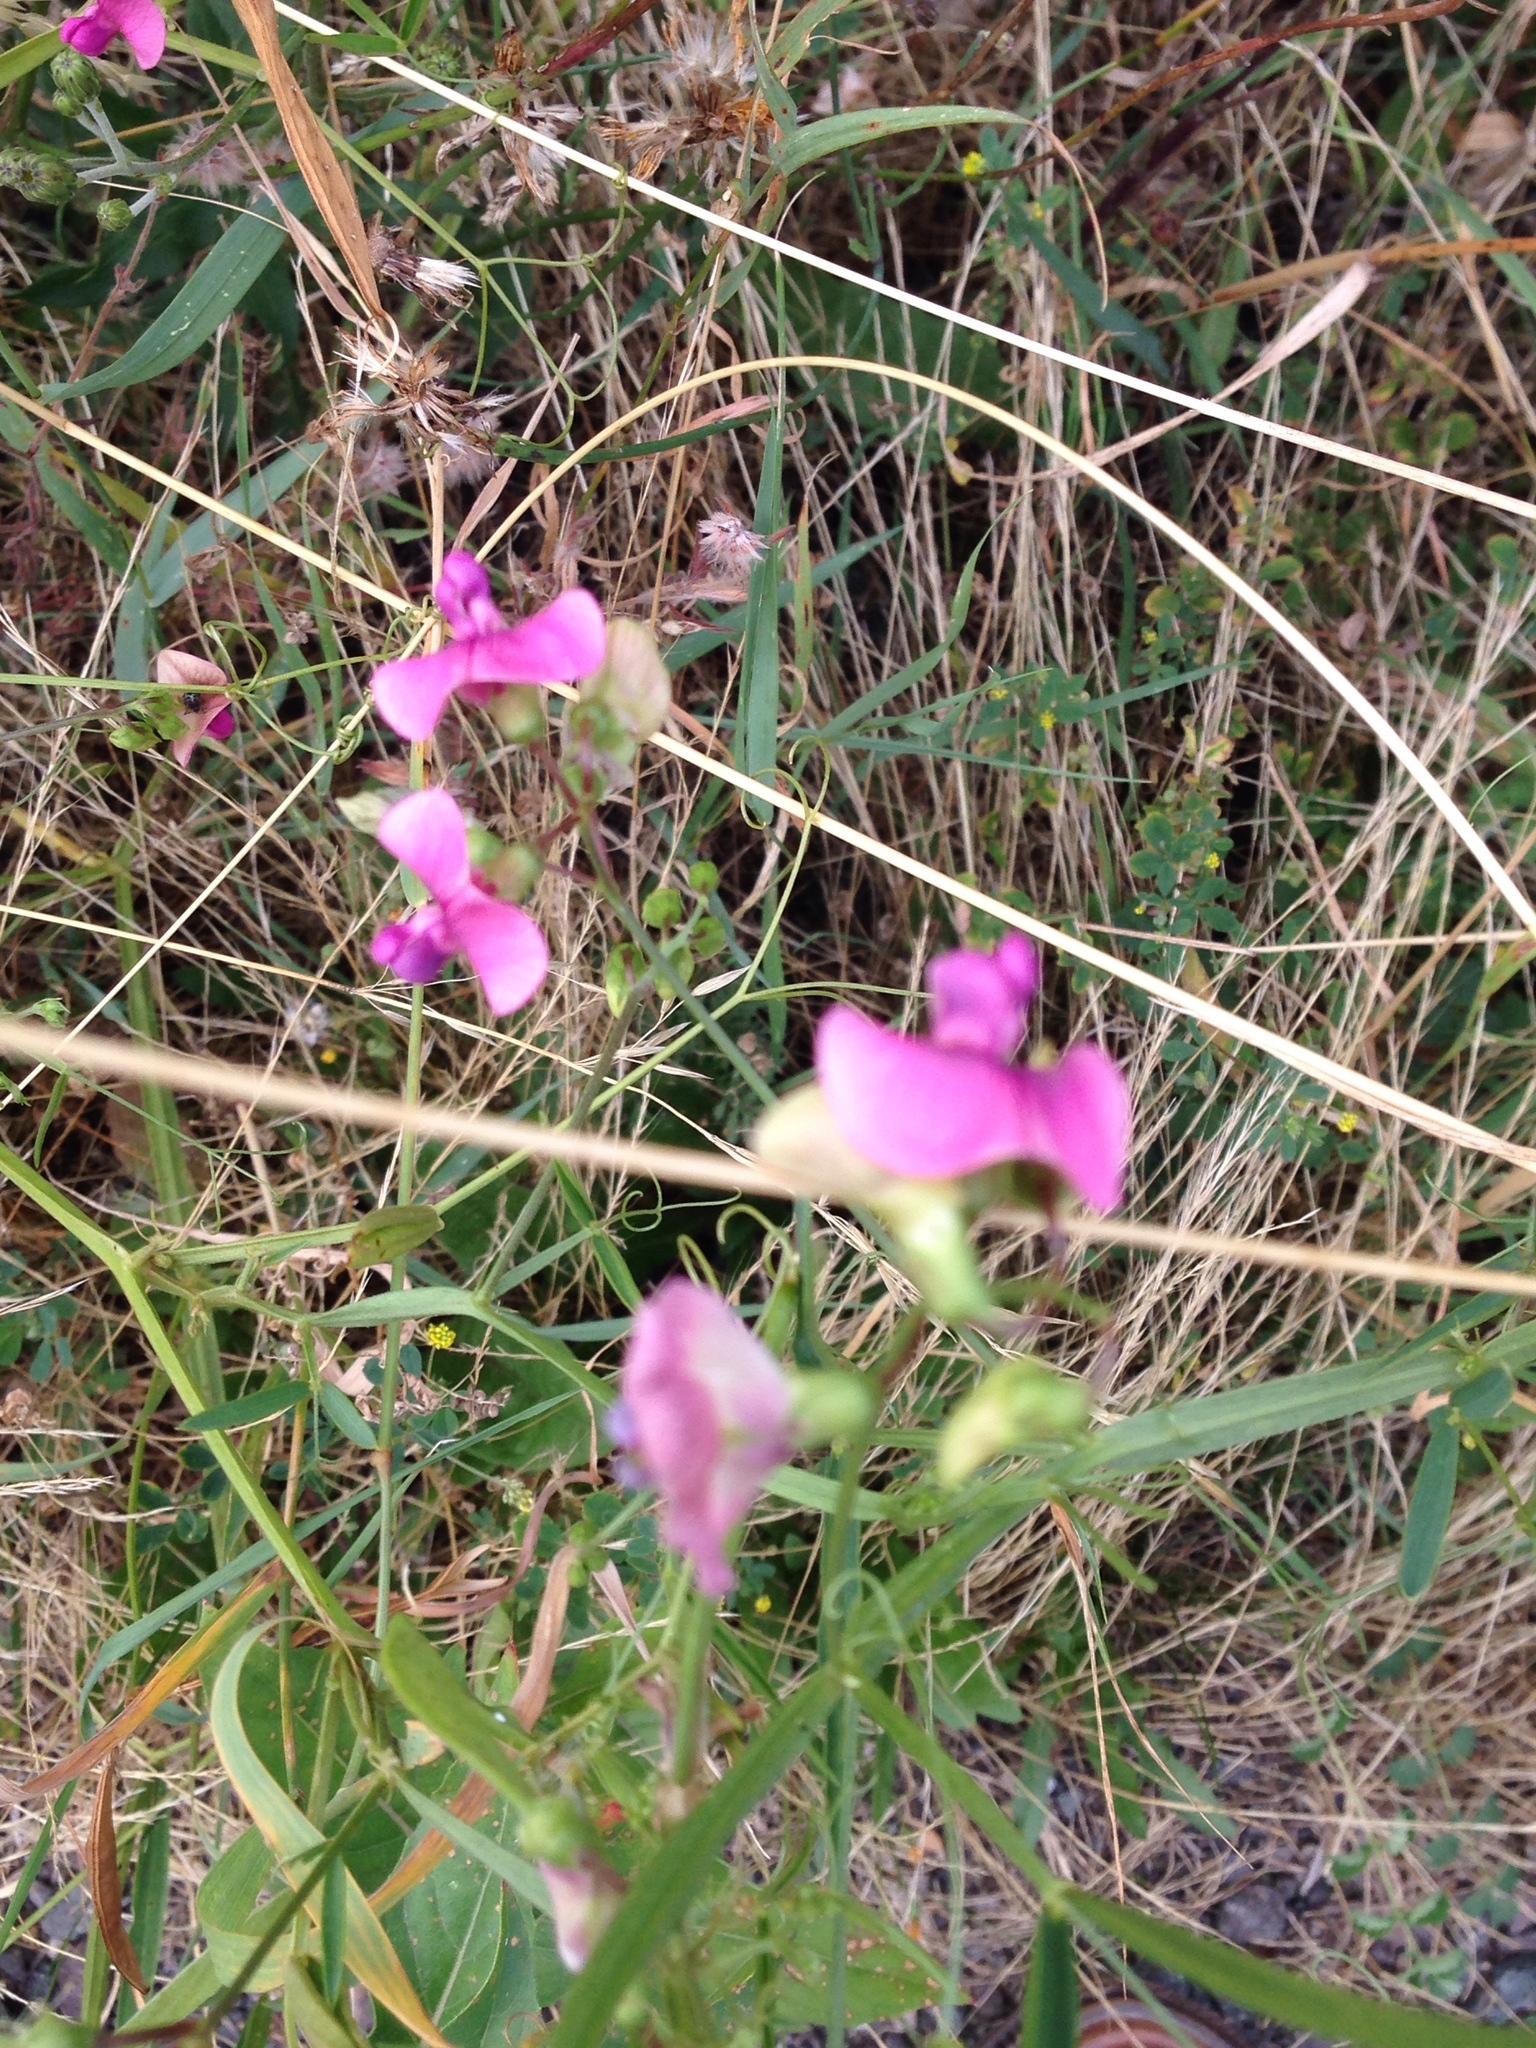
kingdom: Plantae
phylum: Tracheophyta
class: Magnoliopsida
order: Fabales
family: Fabaceae
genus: Lathyrus
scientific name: Lathyrus latifolius
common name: Perennial pea
